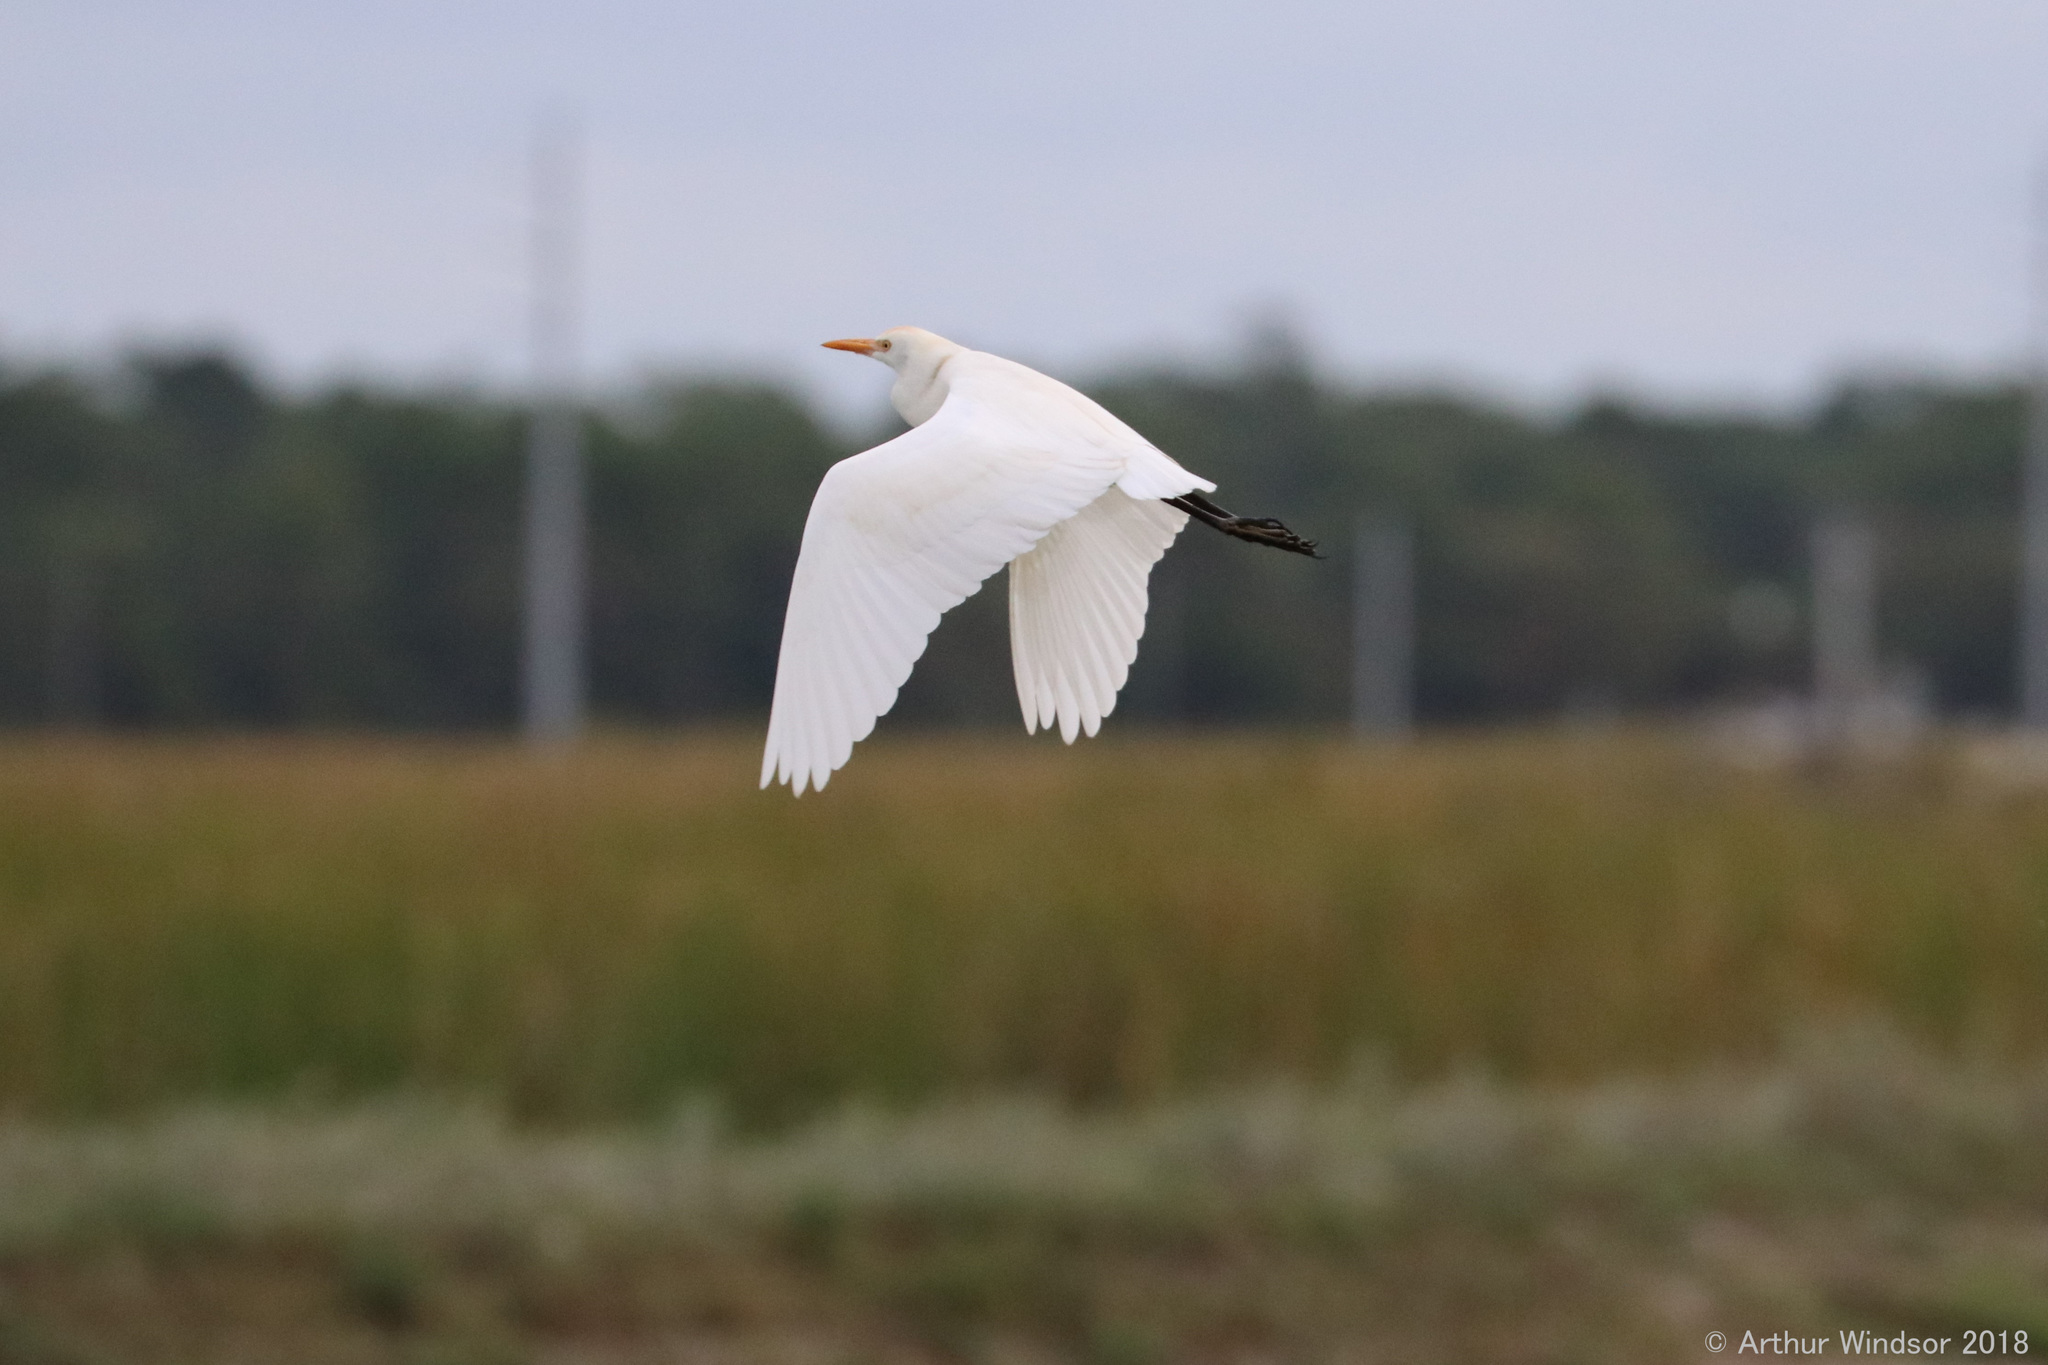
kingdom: Animalia
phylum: Chordata
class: Aves
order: Pelecaniformes
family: Ardeidae
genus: Bubulcus
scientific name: Bubulcus ibis
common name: Cattle egret
